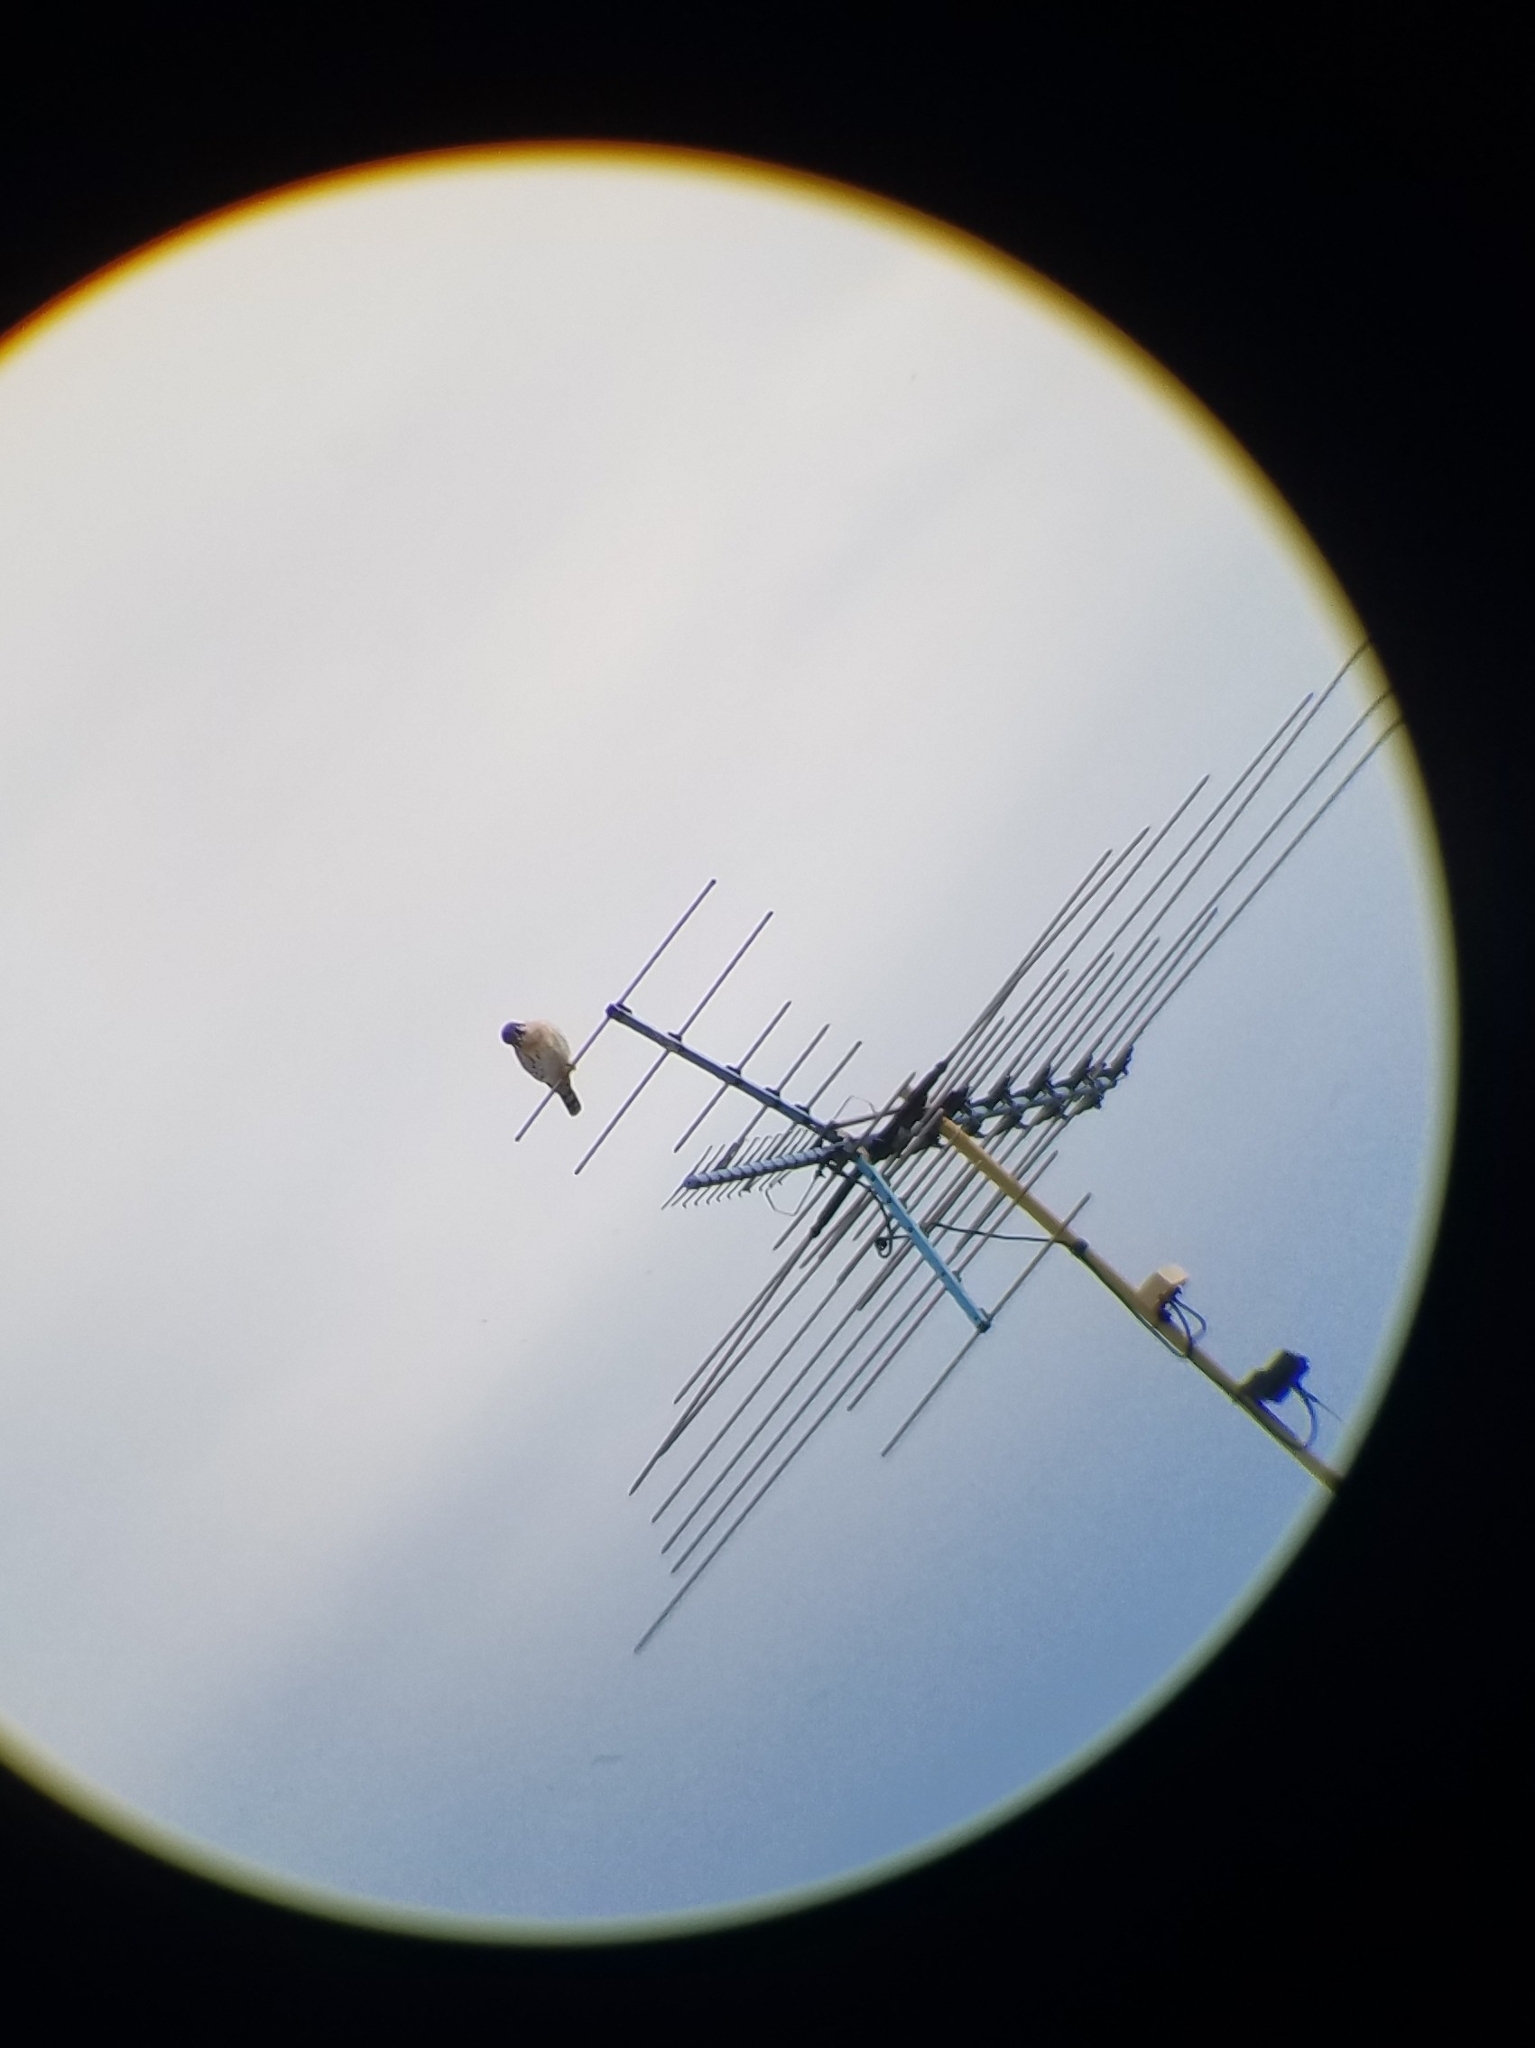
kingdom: Animalia
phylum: Chordata
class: Aves
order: Falconiformes
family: Falconidae
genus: Falco
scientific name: Falco sparverius
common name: American kestrel
